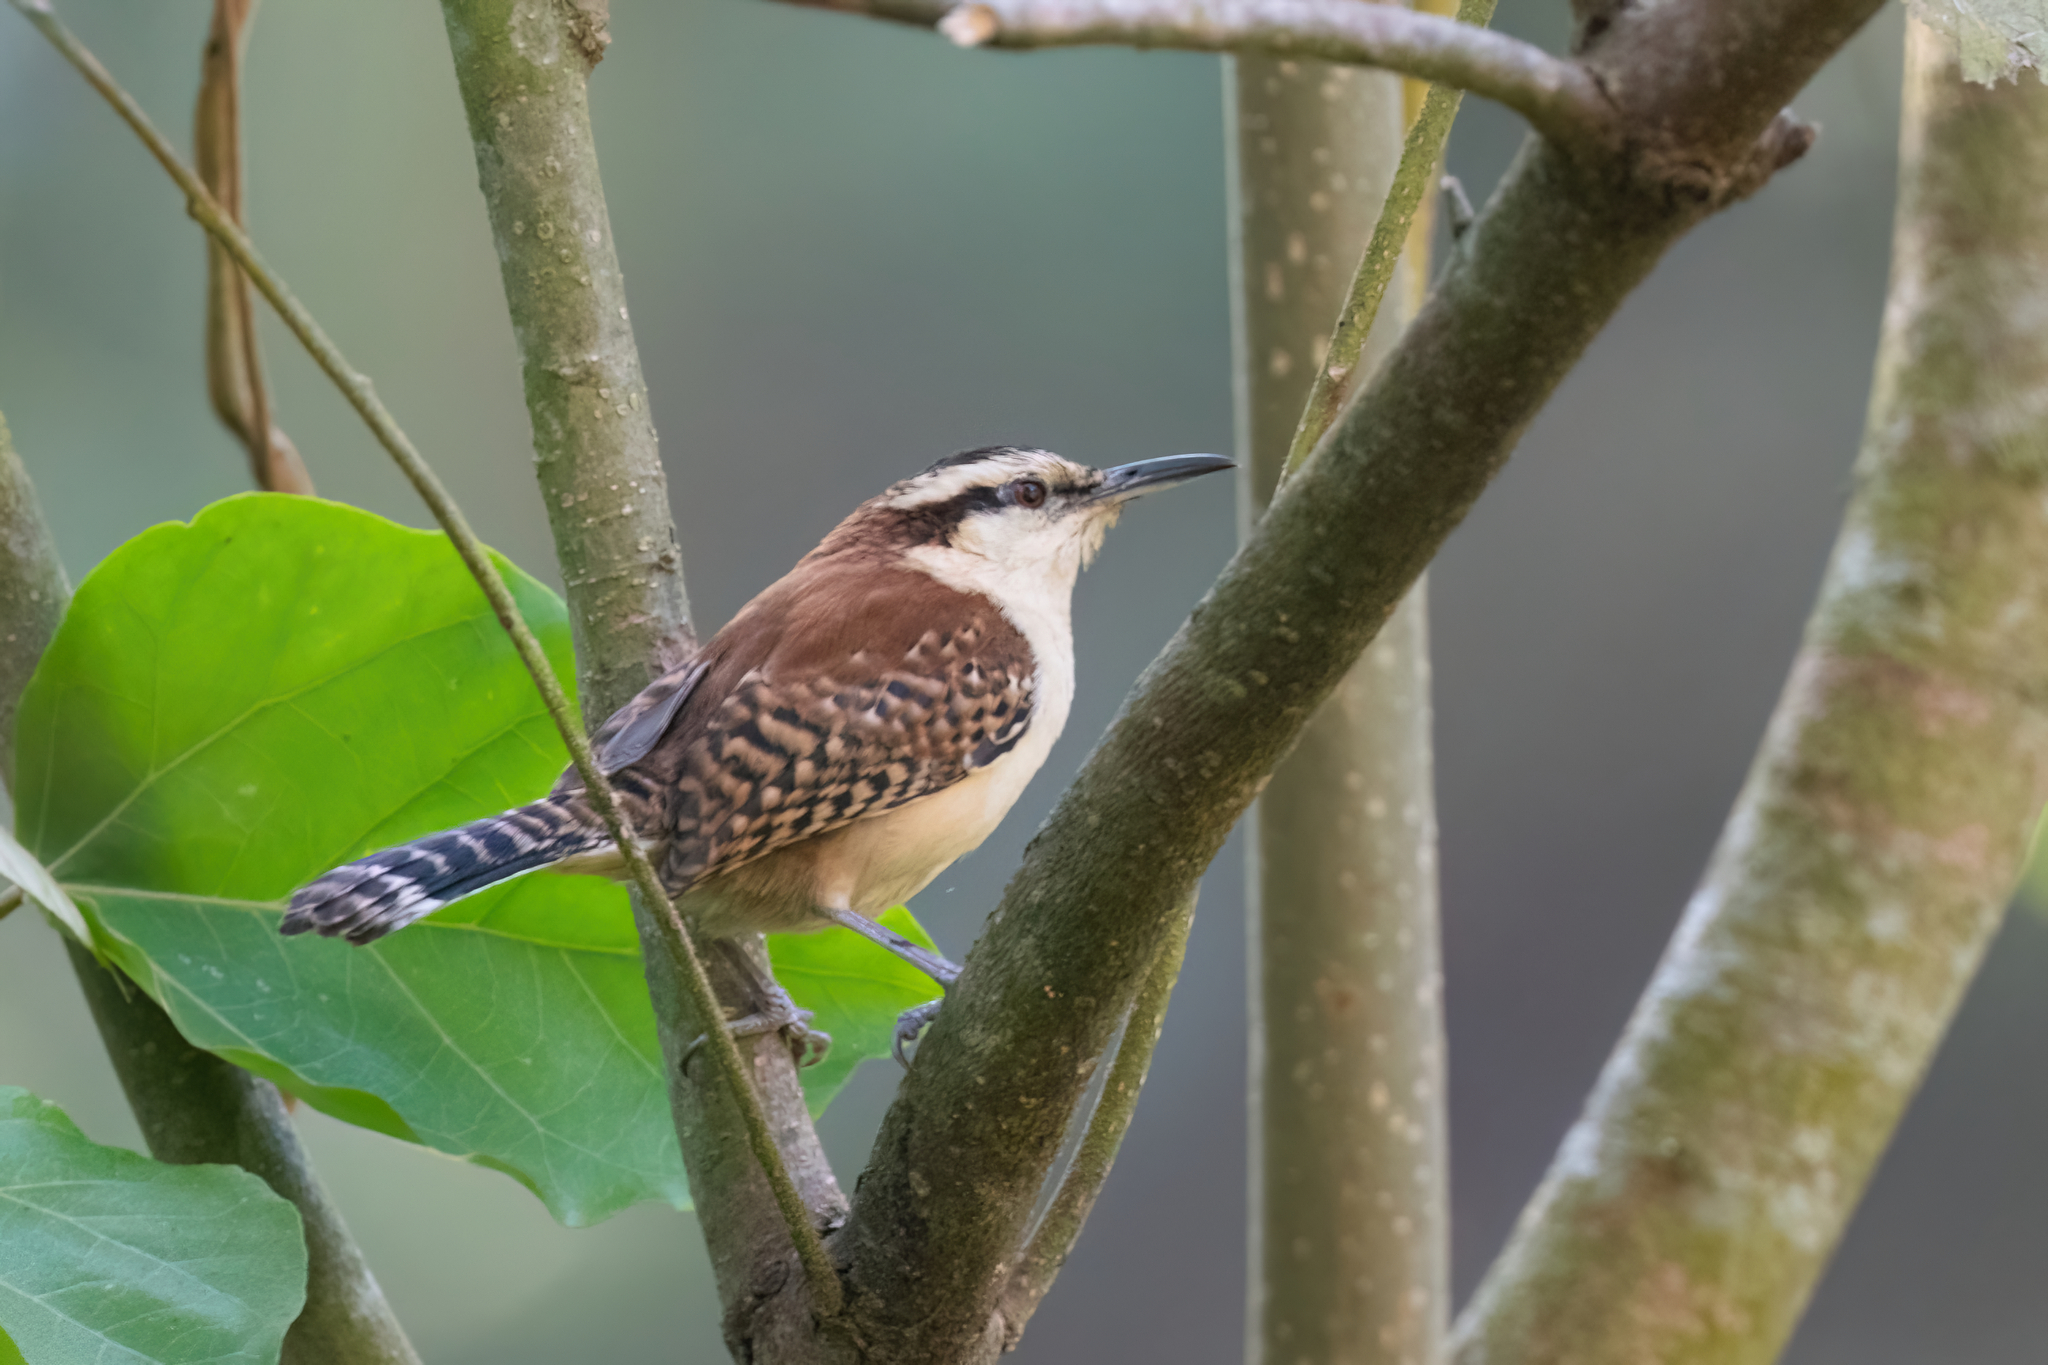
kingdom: Animalia
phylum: Chordata
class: Aves
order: Passeriformes
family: Troglodytidae
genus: Campylorhynchus
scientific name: Campylorhynchus rufinucha
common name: Rufous-naped wren
